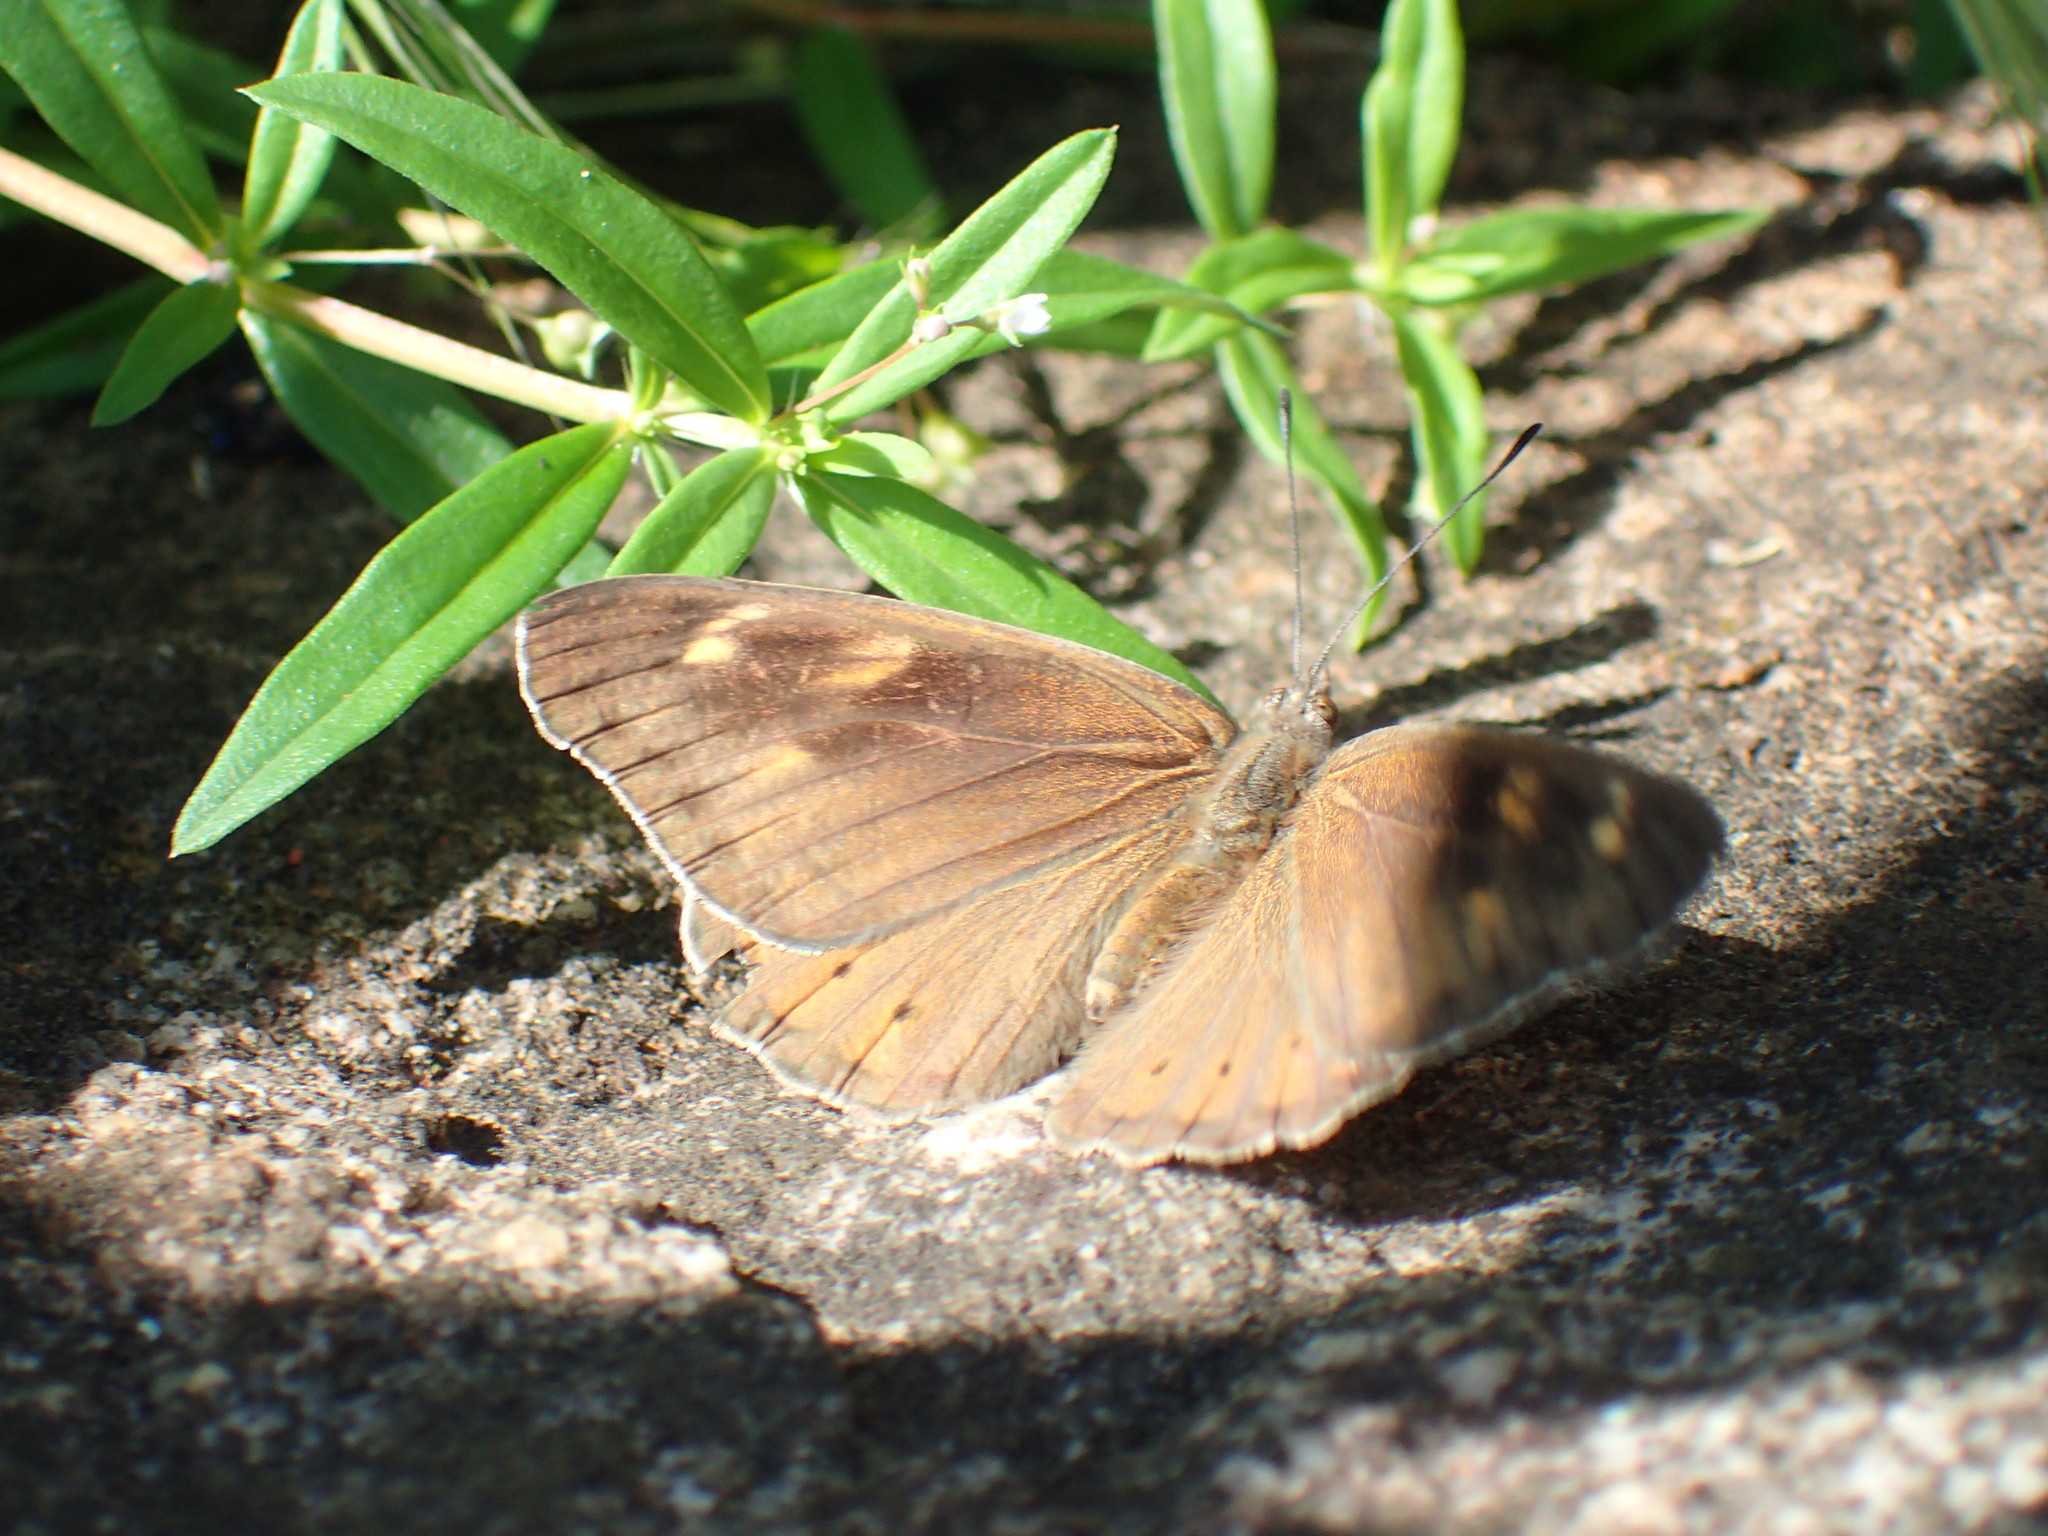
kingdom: Animalia
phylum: Arthropoda
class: Insecta
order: Lepidoptera
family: Nymphalidae
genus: Asterope
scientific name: Asterope boisduvali
